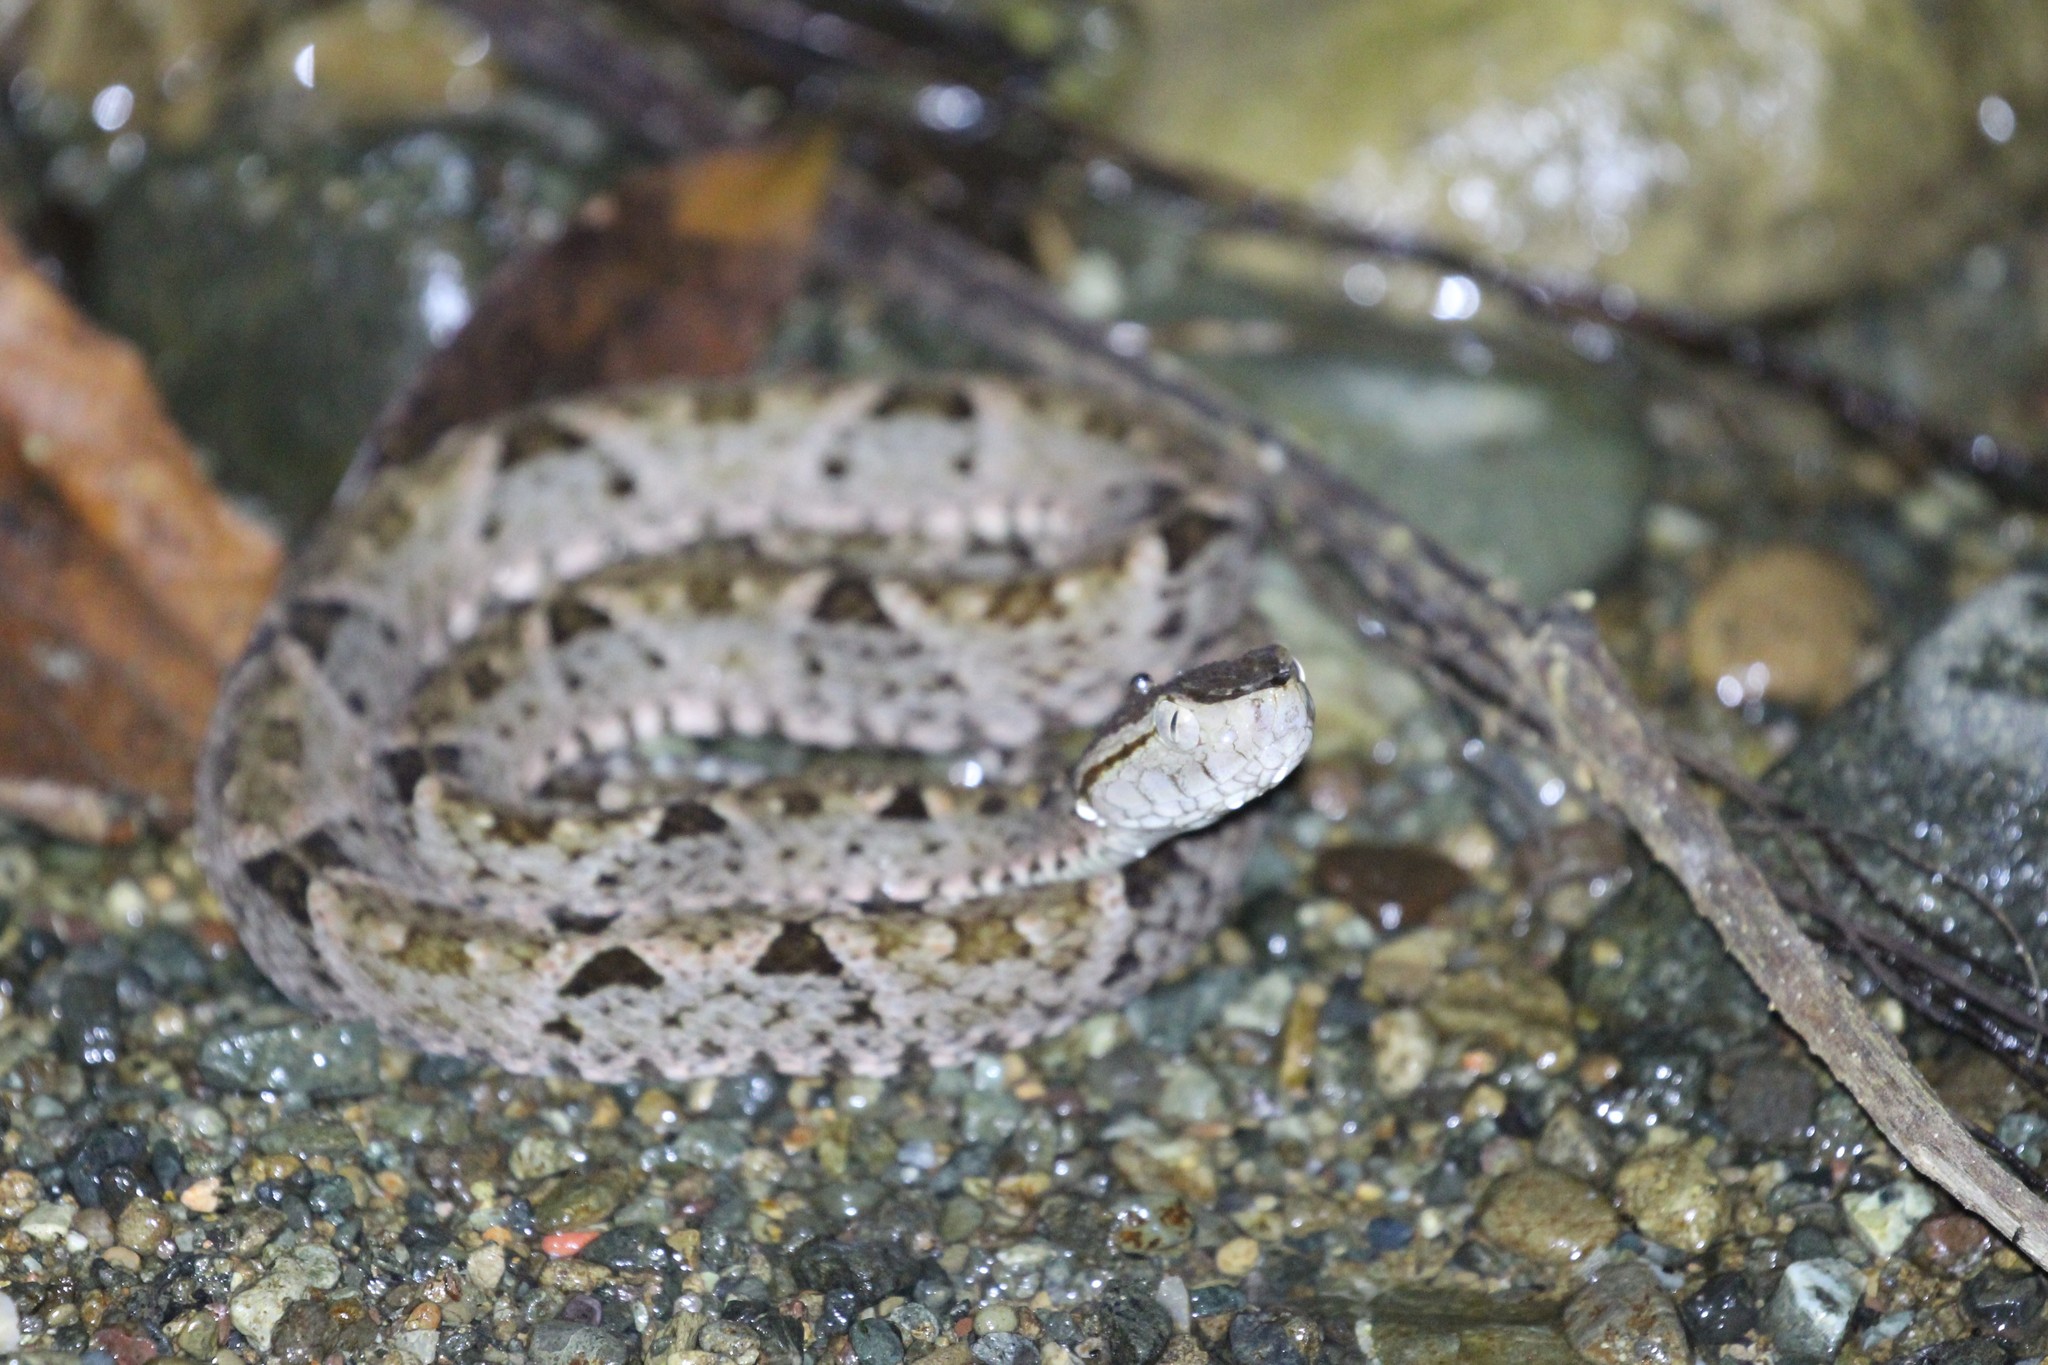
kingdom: Animalia
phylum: Chordata
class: Squamata
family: Viperidae
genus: Bothrops
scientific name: Bothrops asper
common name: Terciopelo
